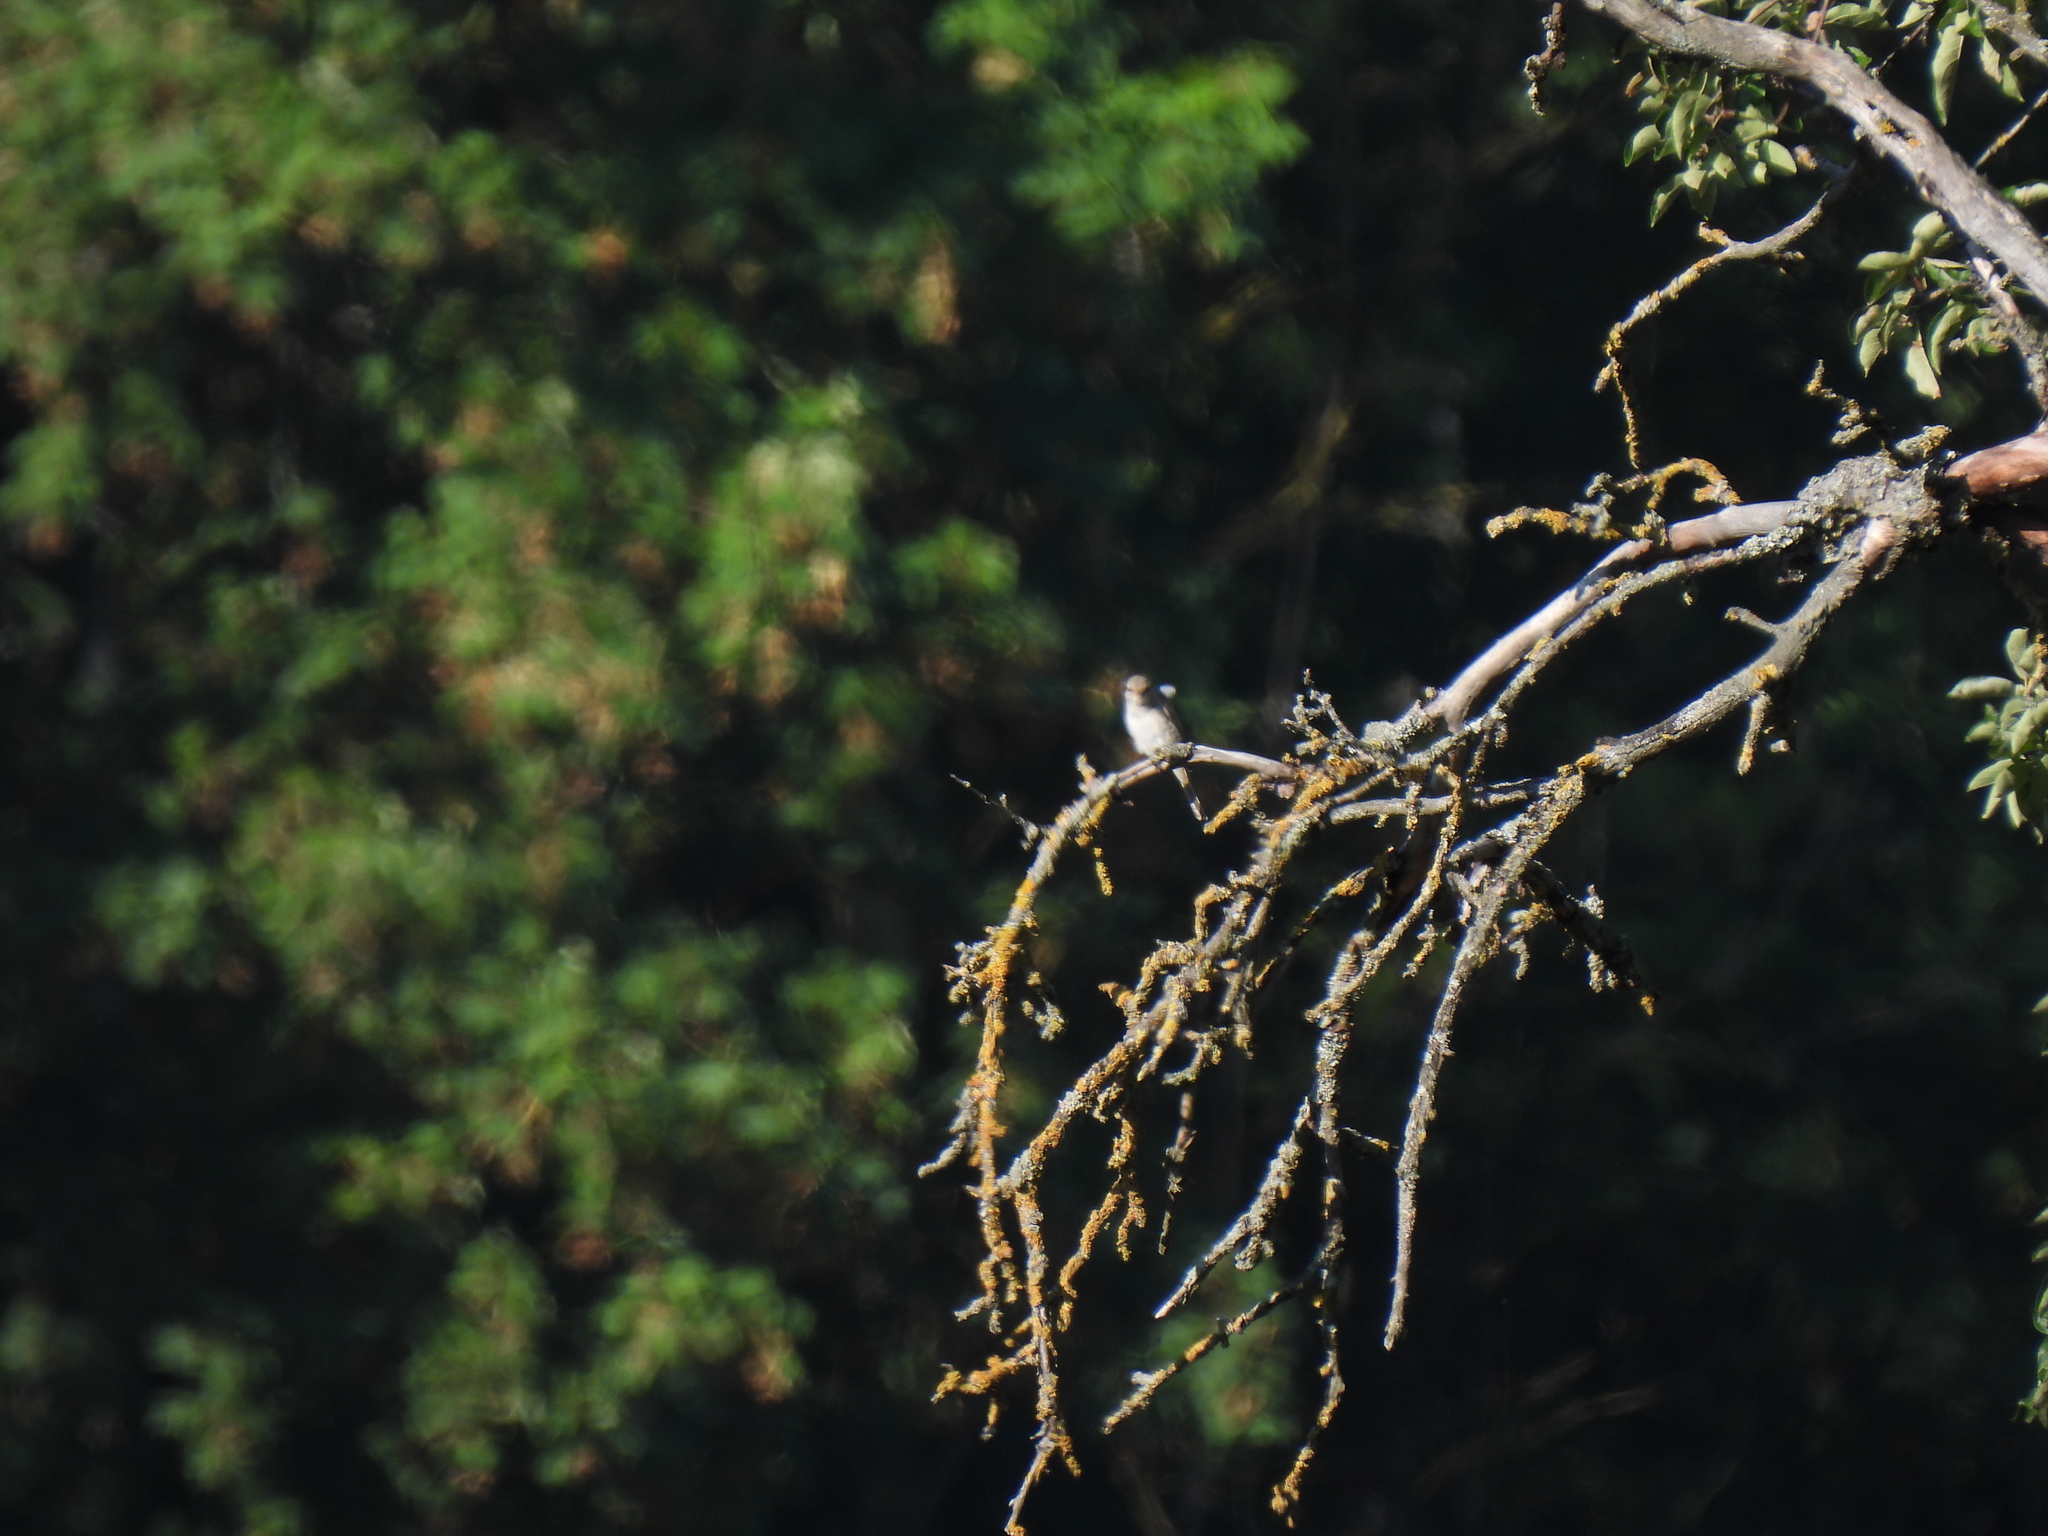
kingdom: Animalia
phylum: Chordata
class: Aves
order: Passeriformes
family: Laniidae
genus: Lanius
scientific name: Lanius collurio
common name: Red-backed shrike
